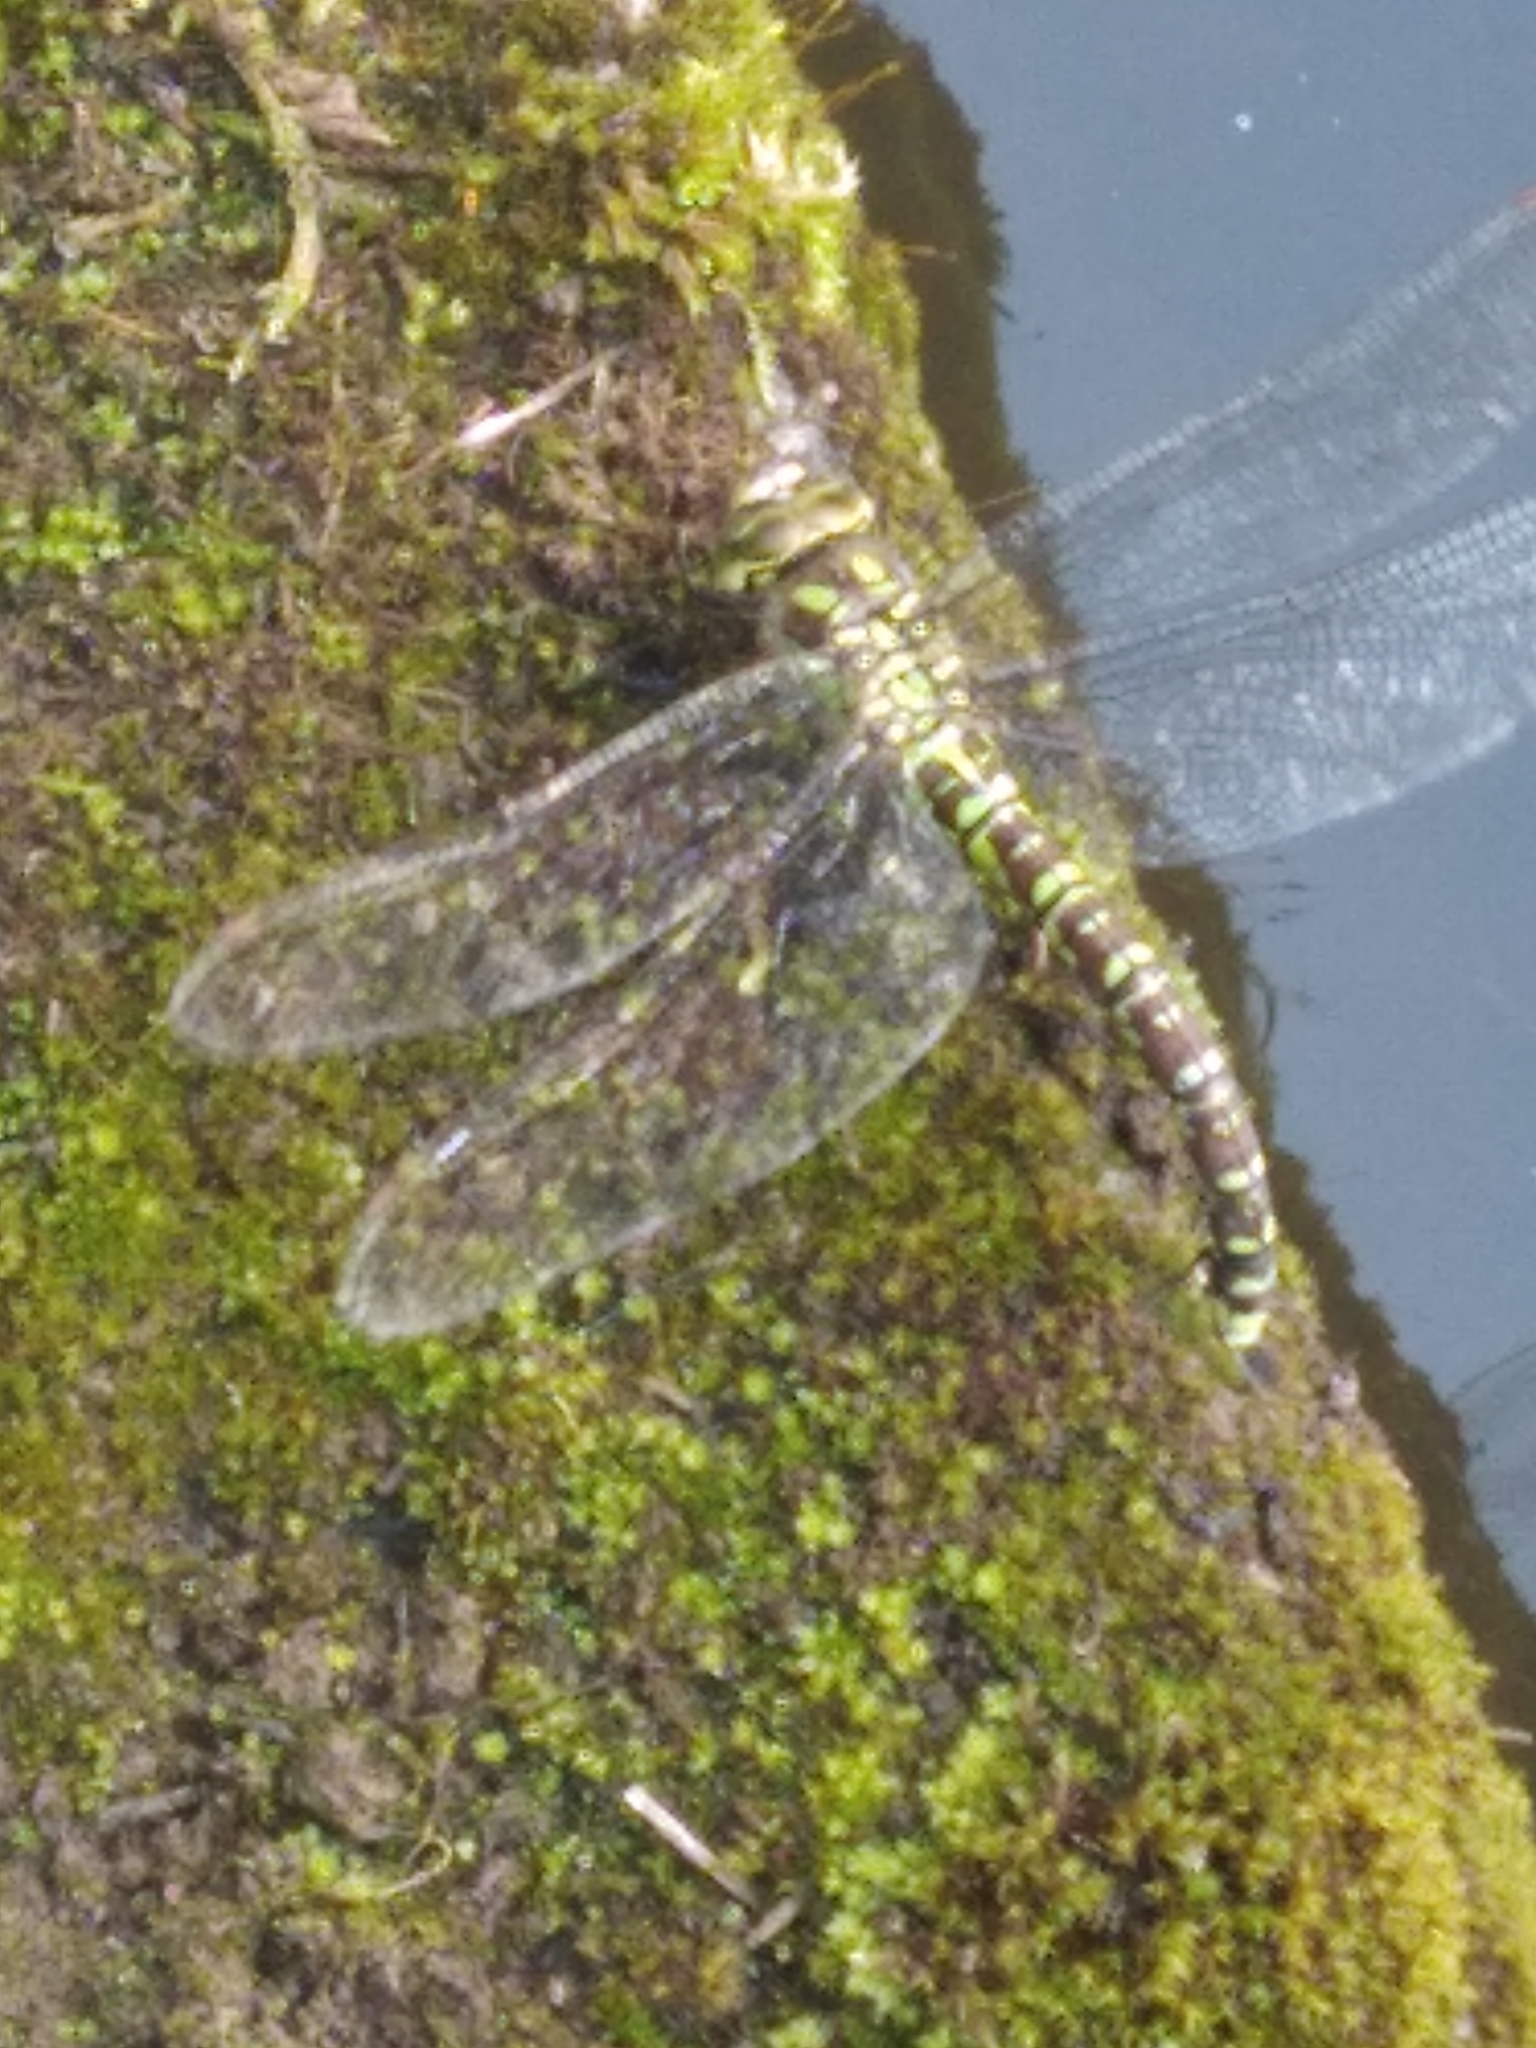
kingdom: Animalia
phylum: Arthropoda
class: Insecta
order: Odonata
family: Aeshnidae
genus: Aeshna
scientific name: Aeshna cyanea
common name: Southern hawker
